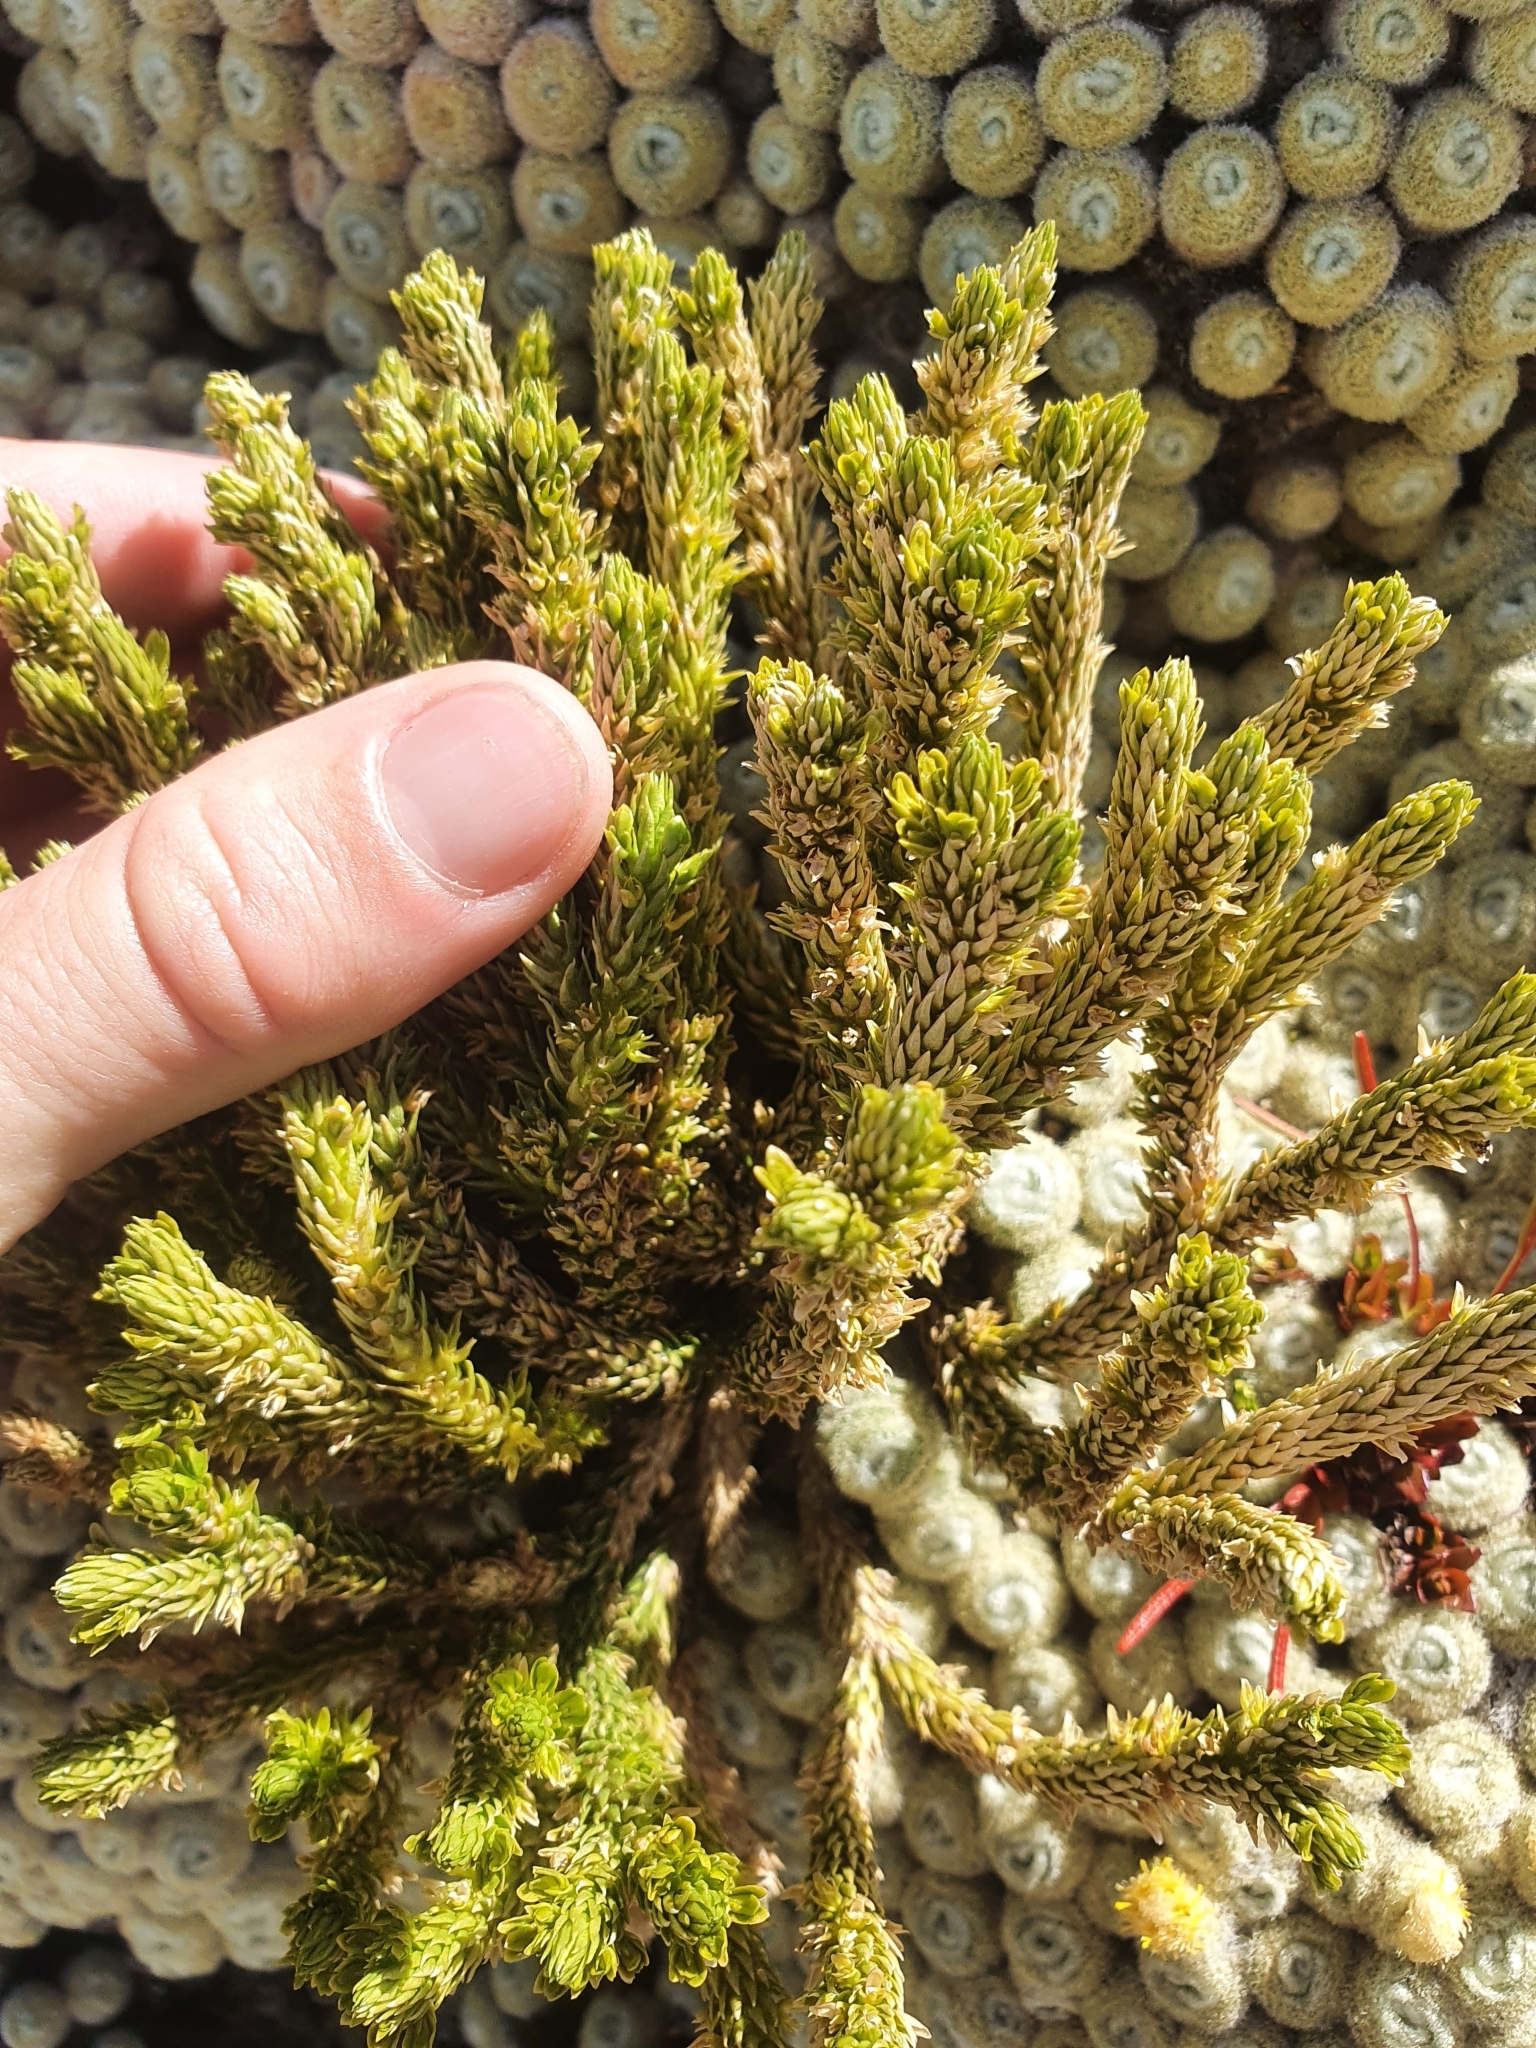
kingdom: Plantae
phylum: Tracheophyta
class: Lycopodiopsida
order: Lycopodiales
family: Lycopodiaceae
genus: Huperzia
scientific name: Huperzia australiana
